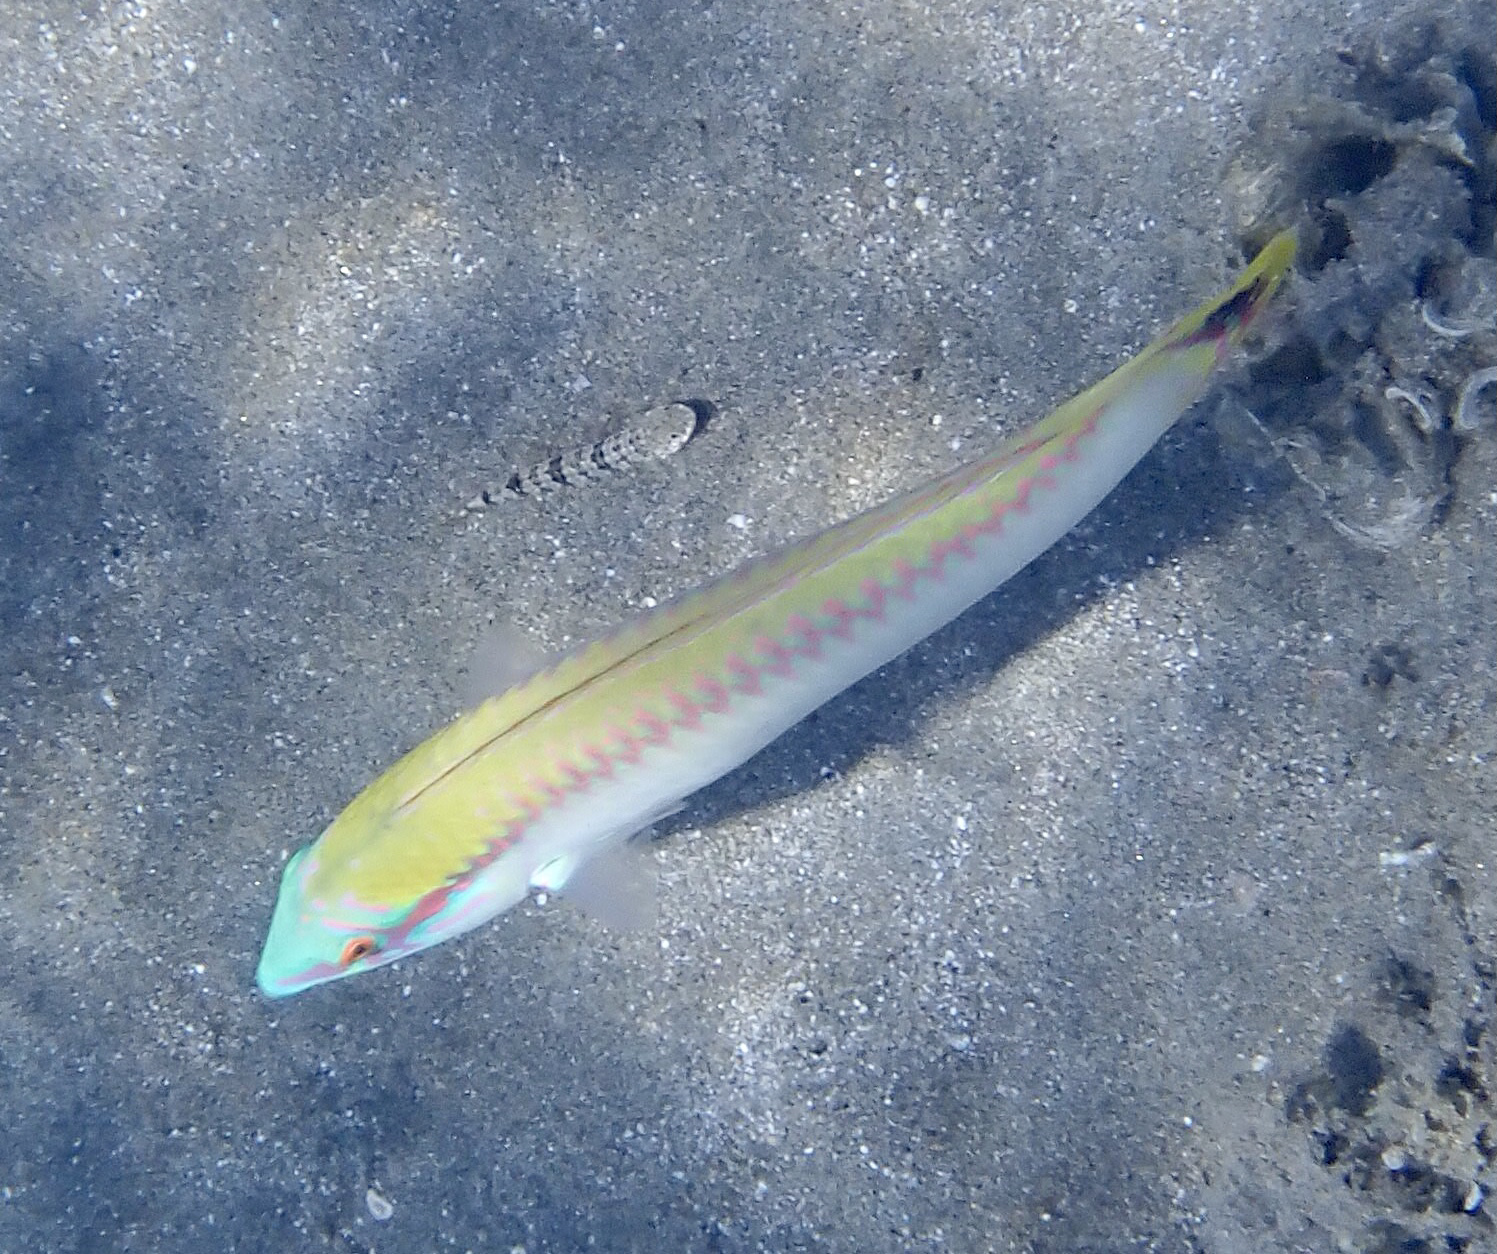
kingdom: Animalia
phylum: Chordata
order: Perciformes
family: Labridae
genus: Halichoeres
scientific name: Halichoeres scapularis
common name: Brownbanded wrasse
